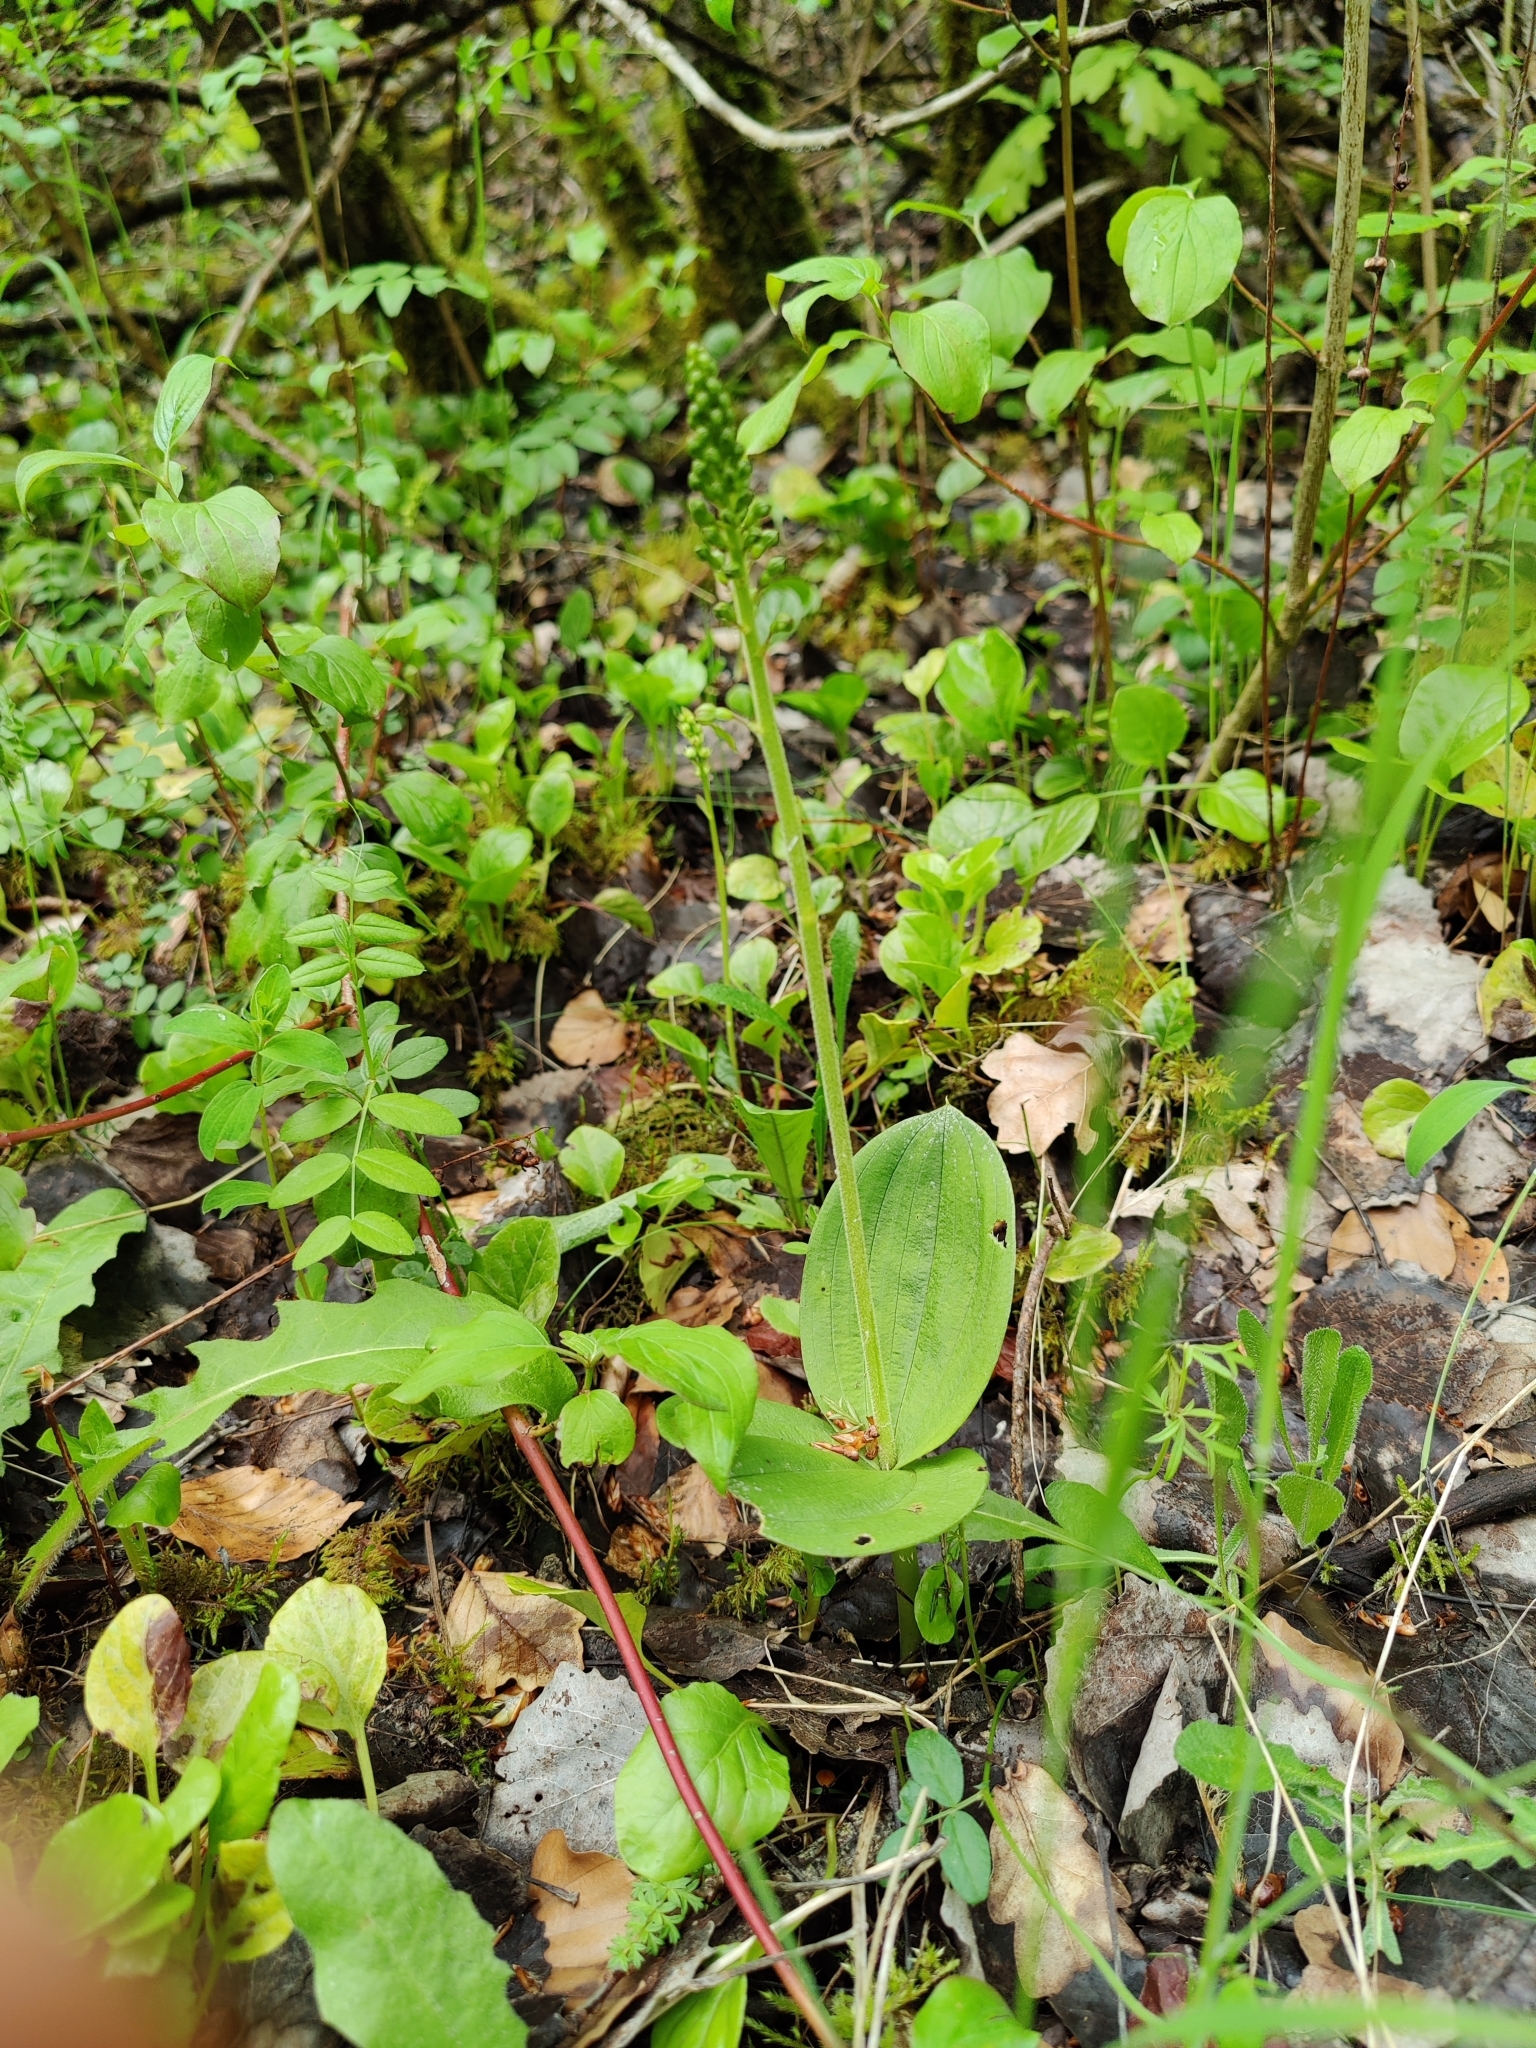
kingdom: Plantae
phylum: Tracheophyta
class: Liliopsida
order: Asparagales
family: Orchidaceae
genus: Neottia
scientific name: Neottia ovata
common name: Common twayblade
